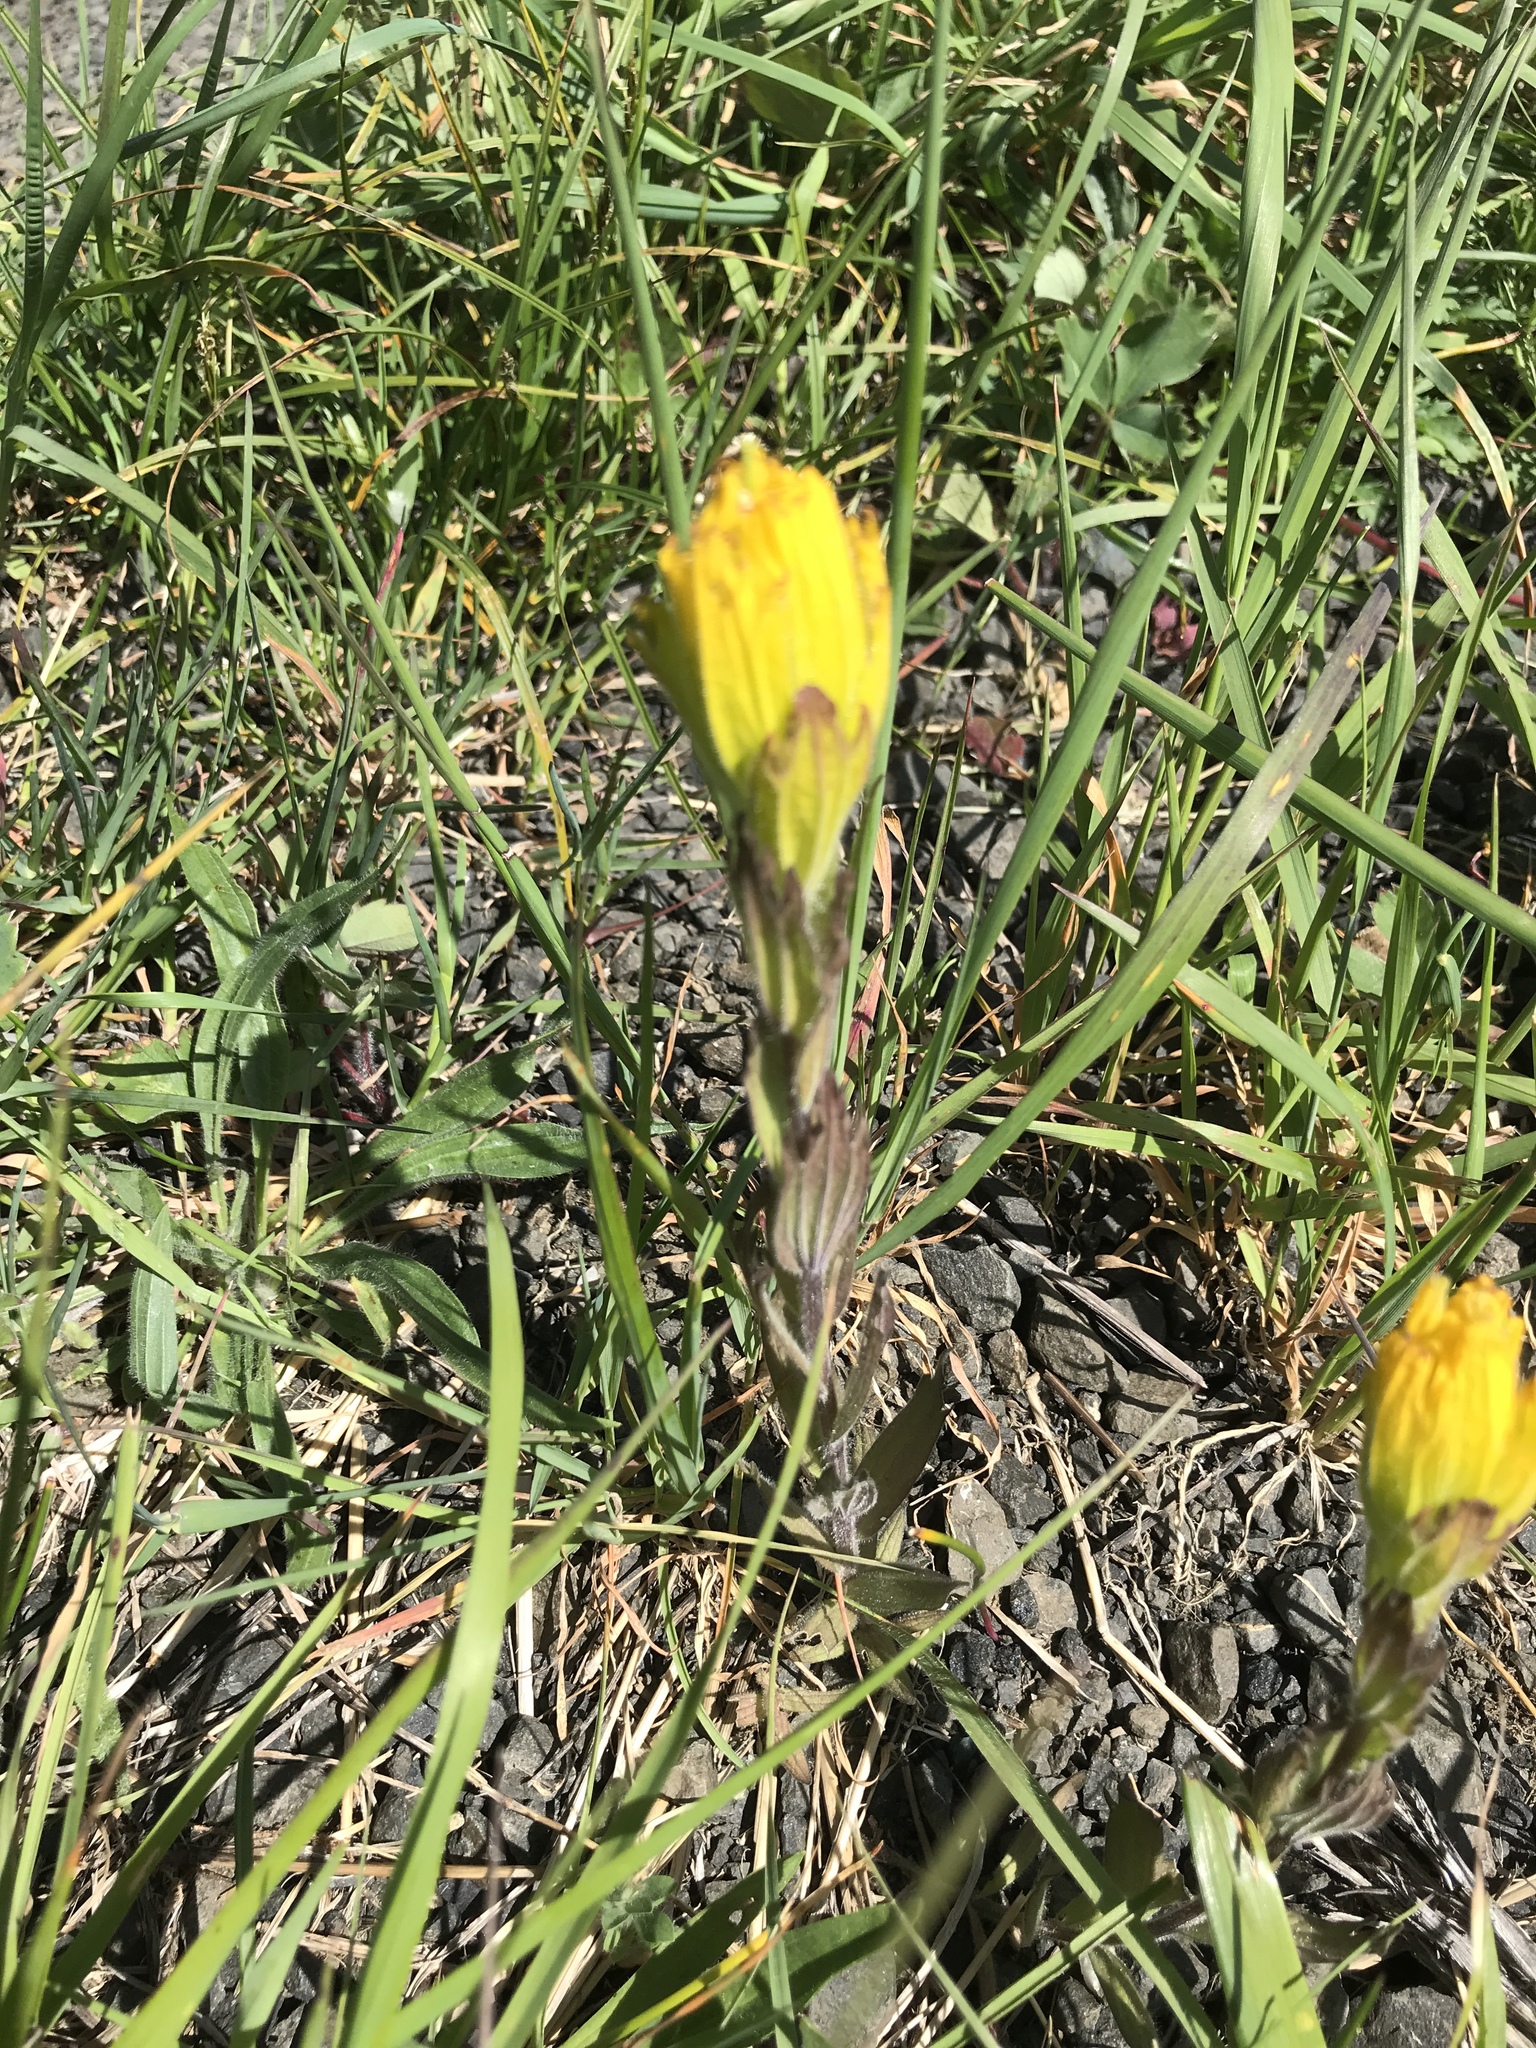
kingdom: Plantae
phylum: Tracheophyta
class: Magnoliopsida
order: Lamiales
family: Orobanchaceae
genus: Castilleja
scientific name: Castilleja levisecta
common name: Golden paintbrush
